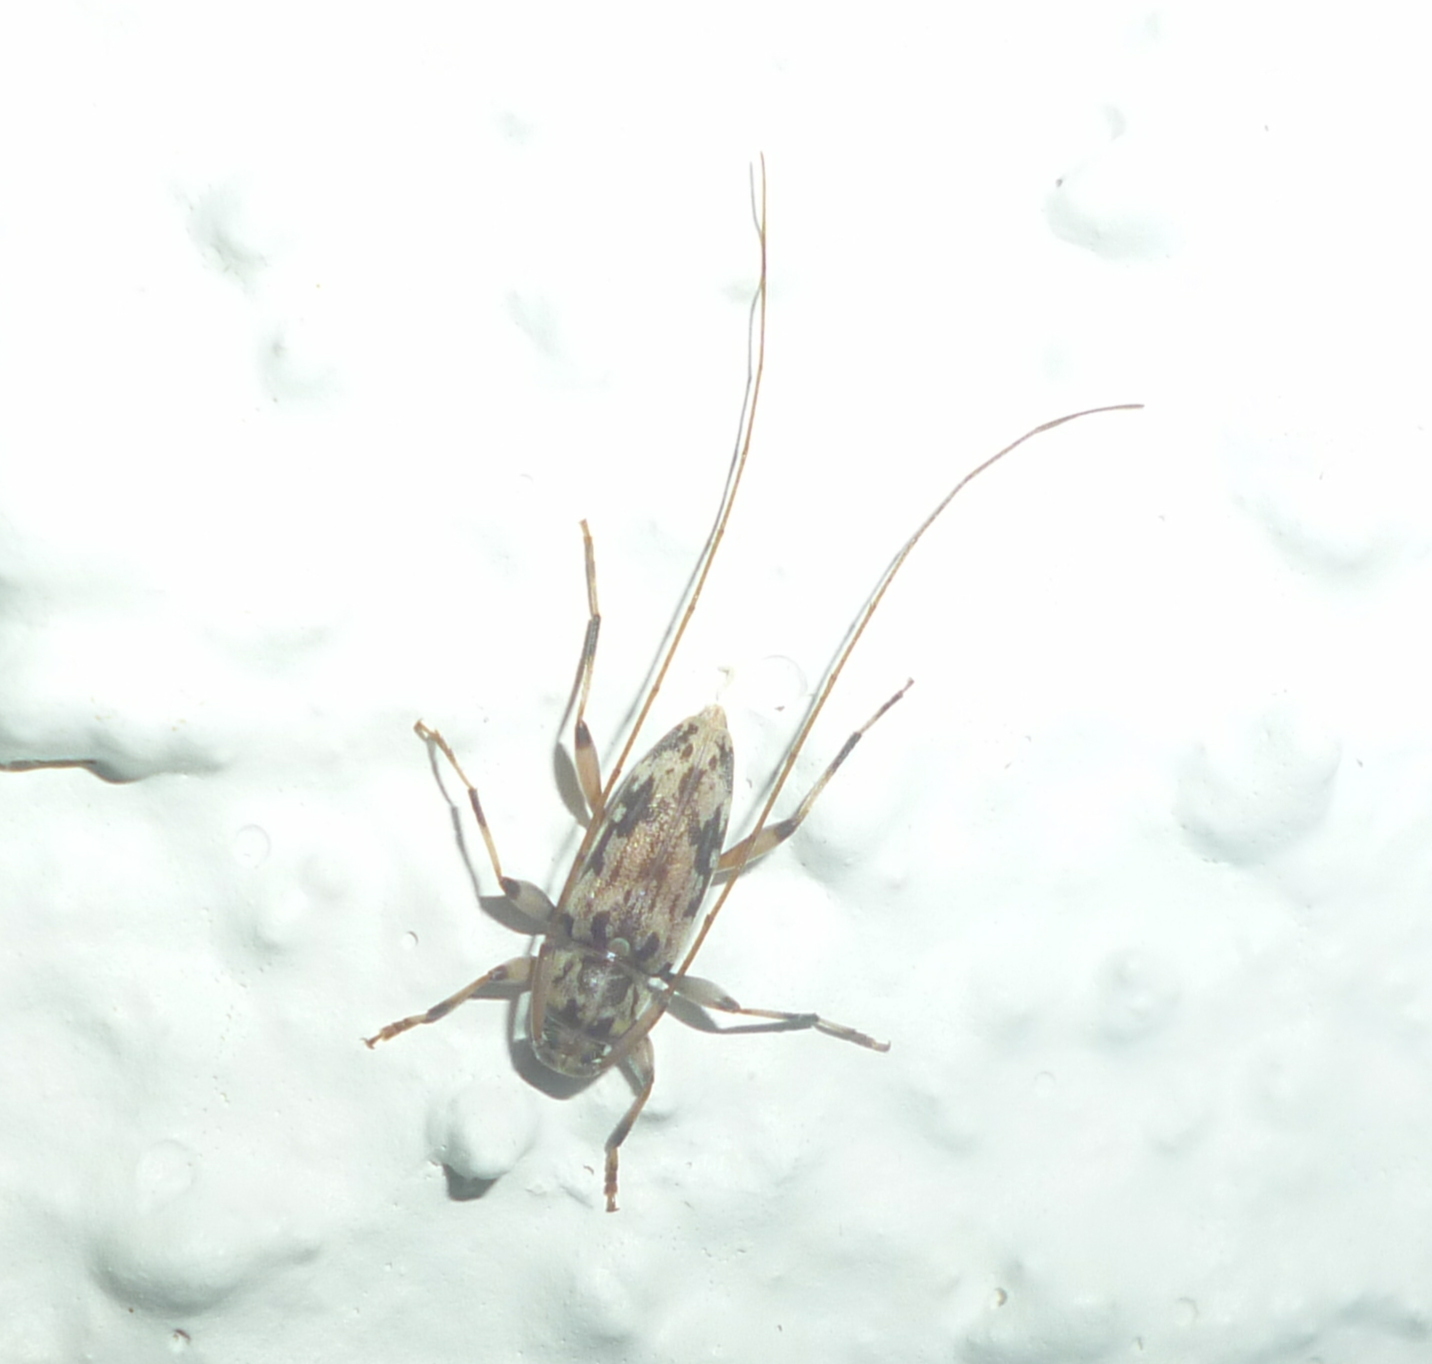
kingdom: Animalia
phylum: Arthropoda
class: Insecta
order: Coleoptera
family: Cerambycidae
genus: Lepturges
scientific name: Lepturges angulatus
